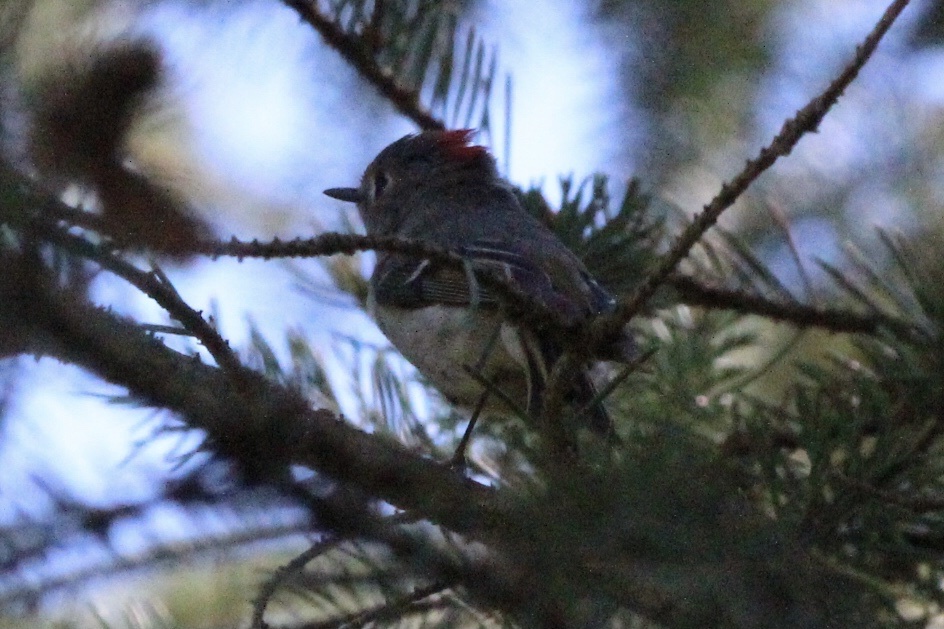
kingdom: Animalia
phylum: Chordata
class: Aves
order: Passeriformes
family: Regulidae
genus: Regulus
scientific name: Regulus calendula
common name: Ruby-crowned kinglet
